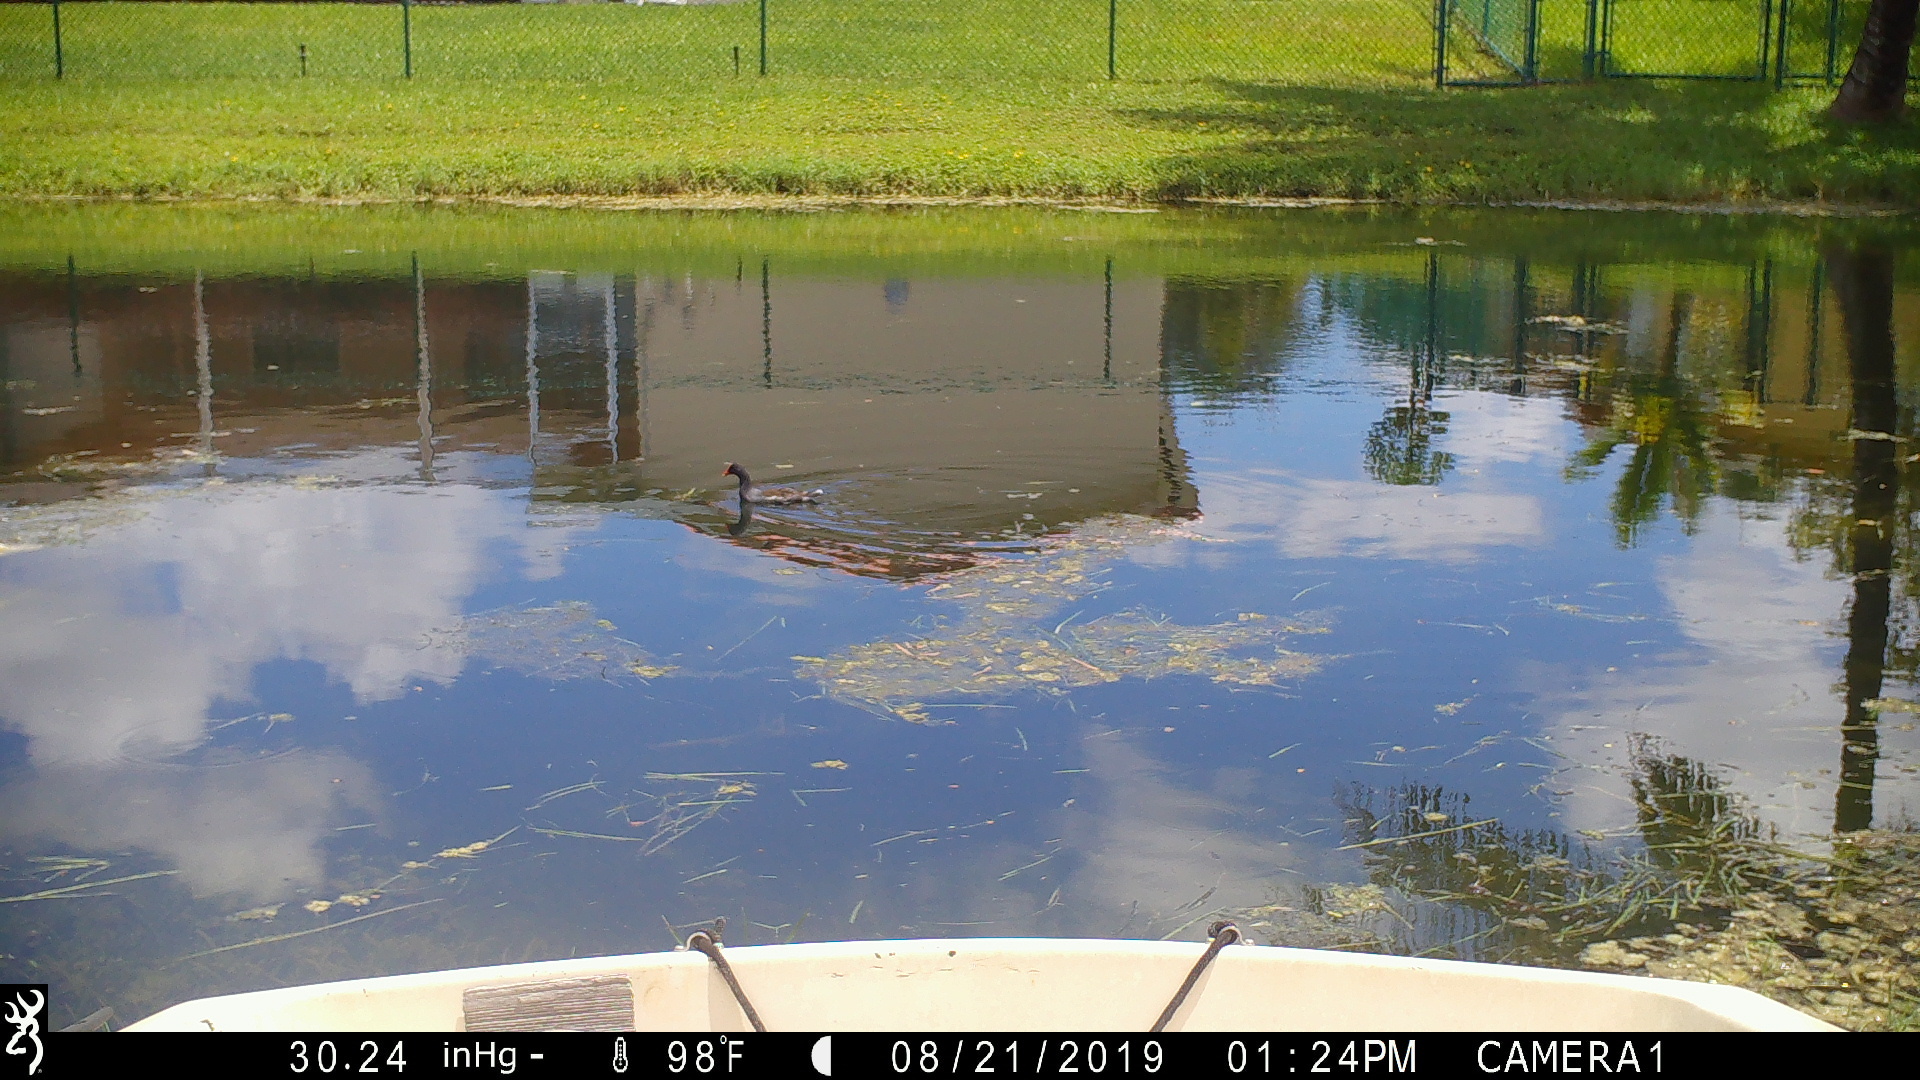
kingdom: Animalia
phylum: Chordata
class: Aves
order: Gruiformes
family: Rallidae
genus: Gallinula
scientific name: Gallinula chloropus
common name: Common moorhen
